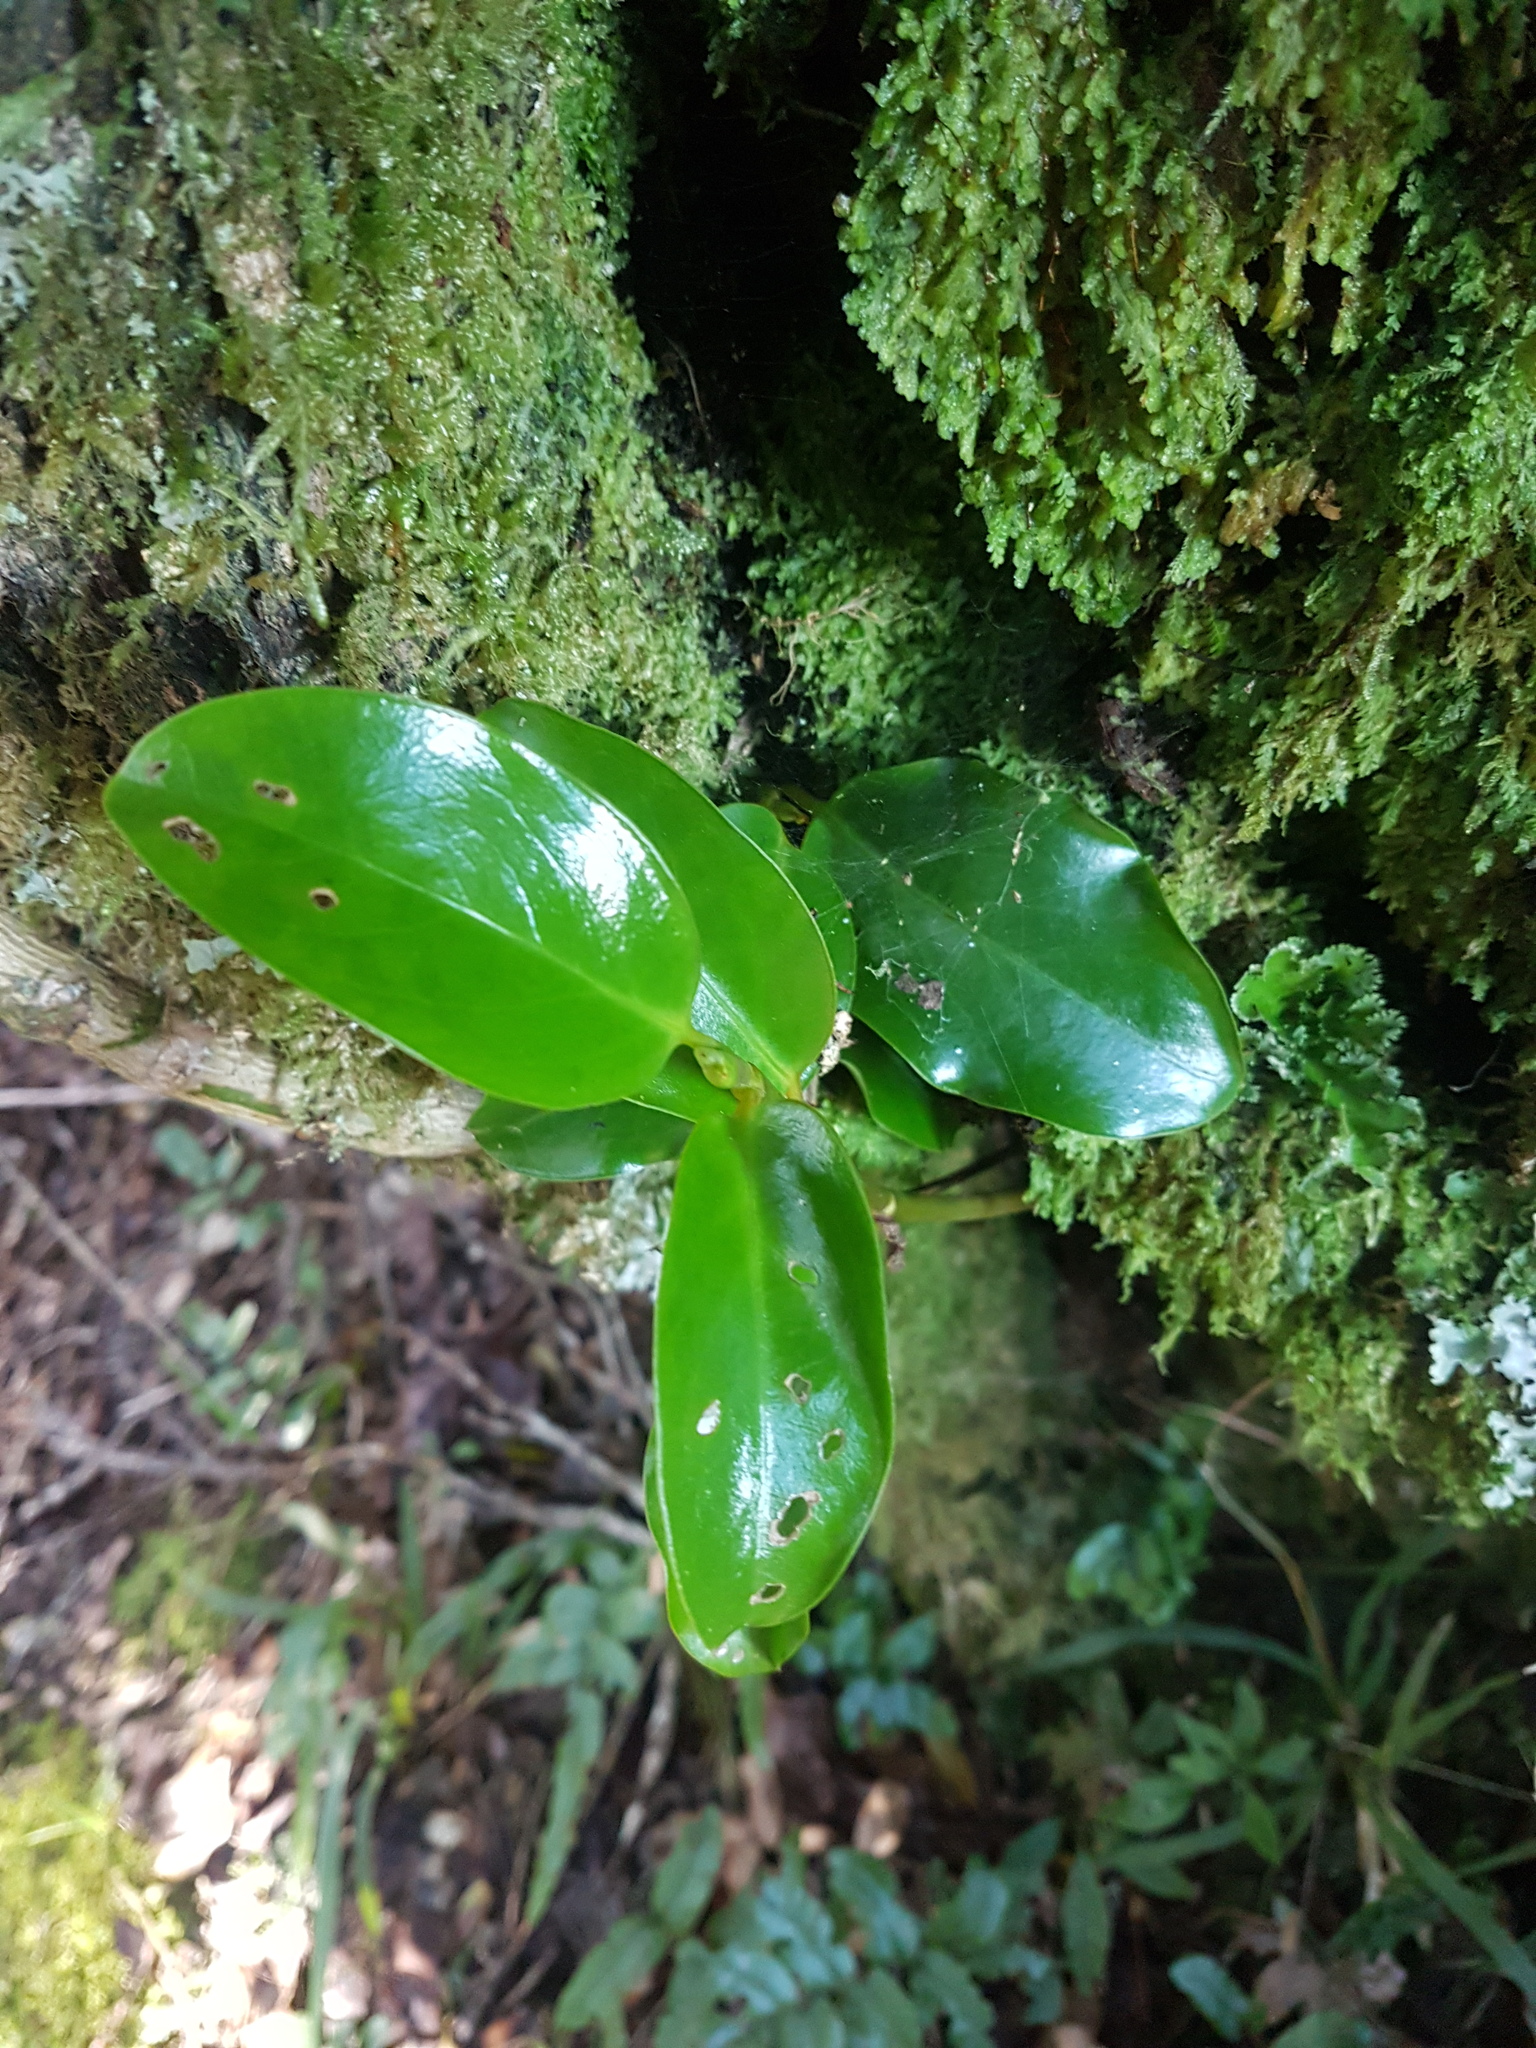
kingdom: Plantae
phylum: Tracheophyta
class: Magnoliopsida
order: Apiales
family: Griseliniaceae
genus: Griselinia
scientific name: Griselinia lucida
